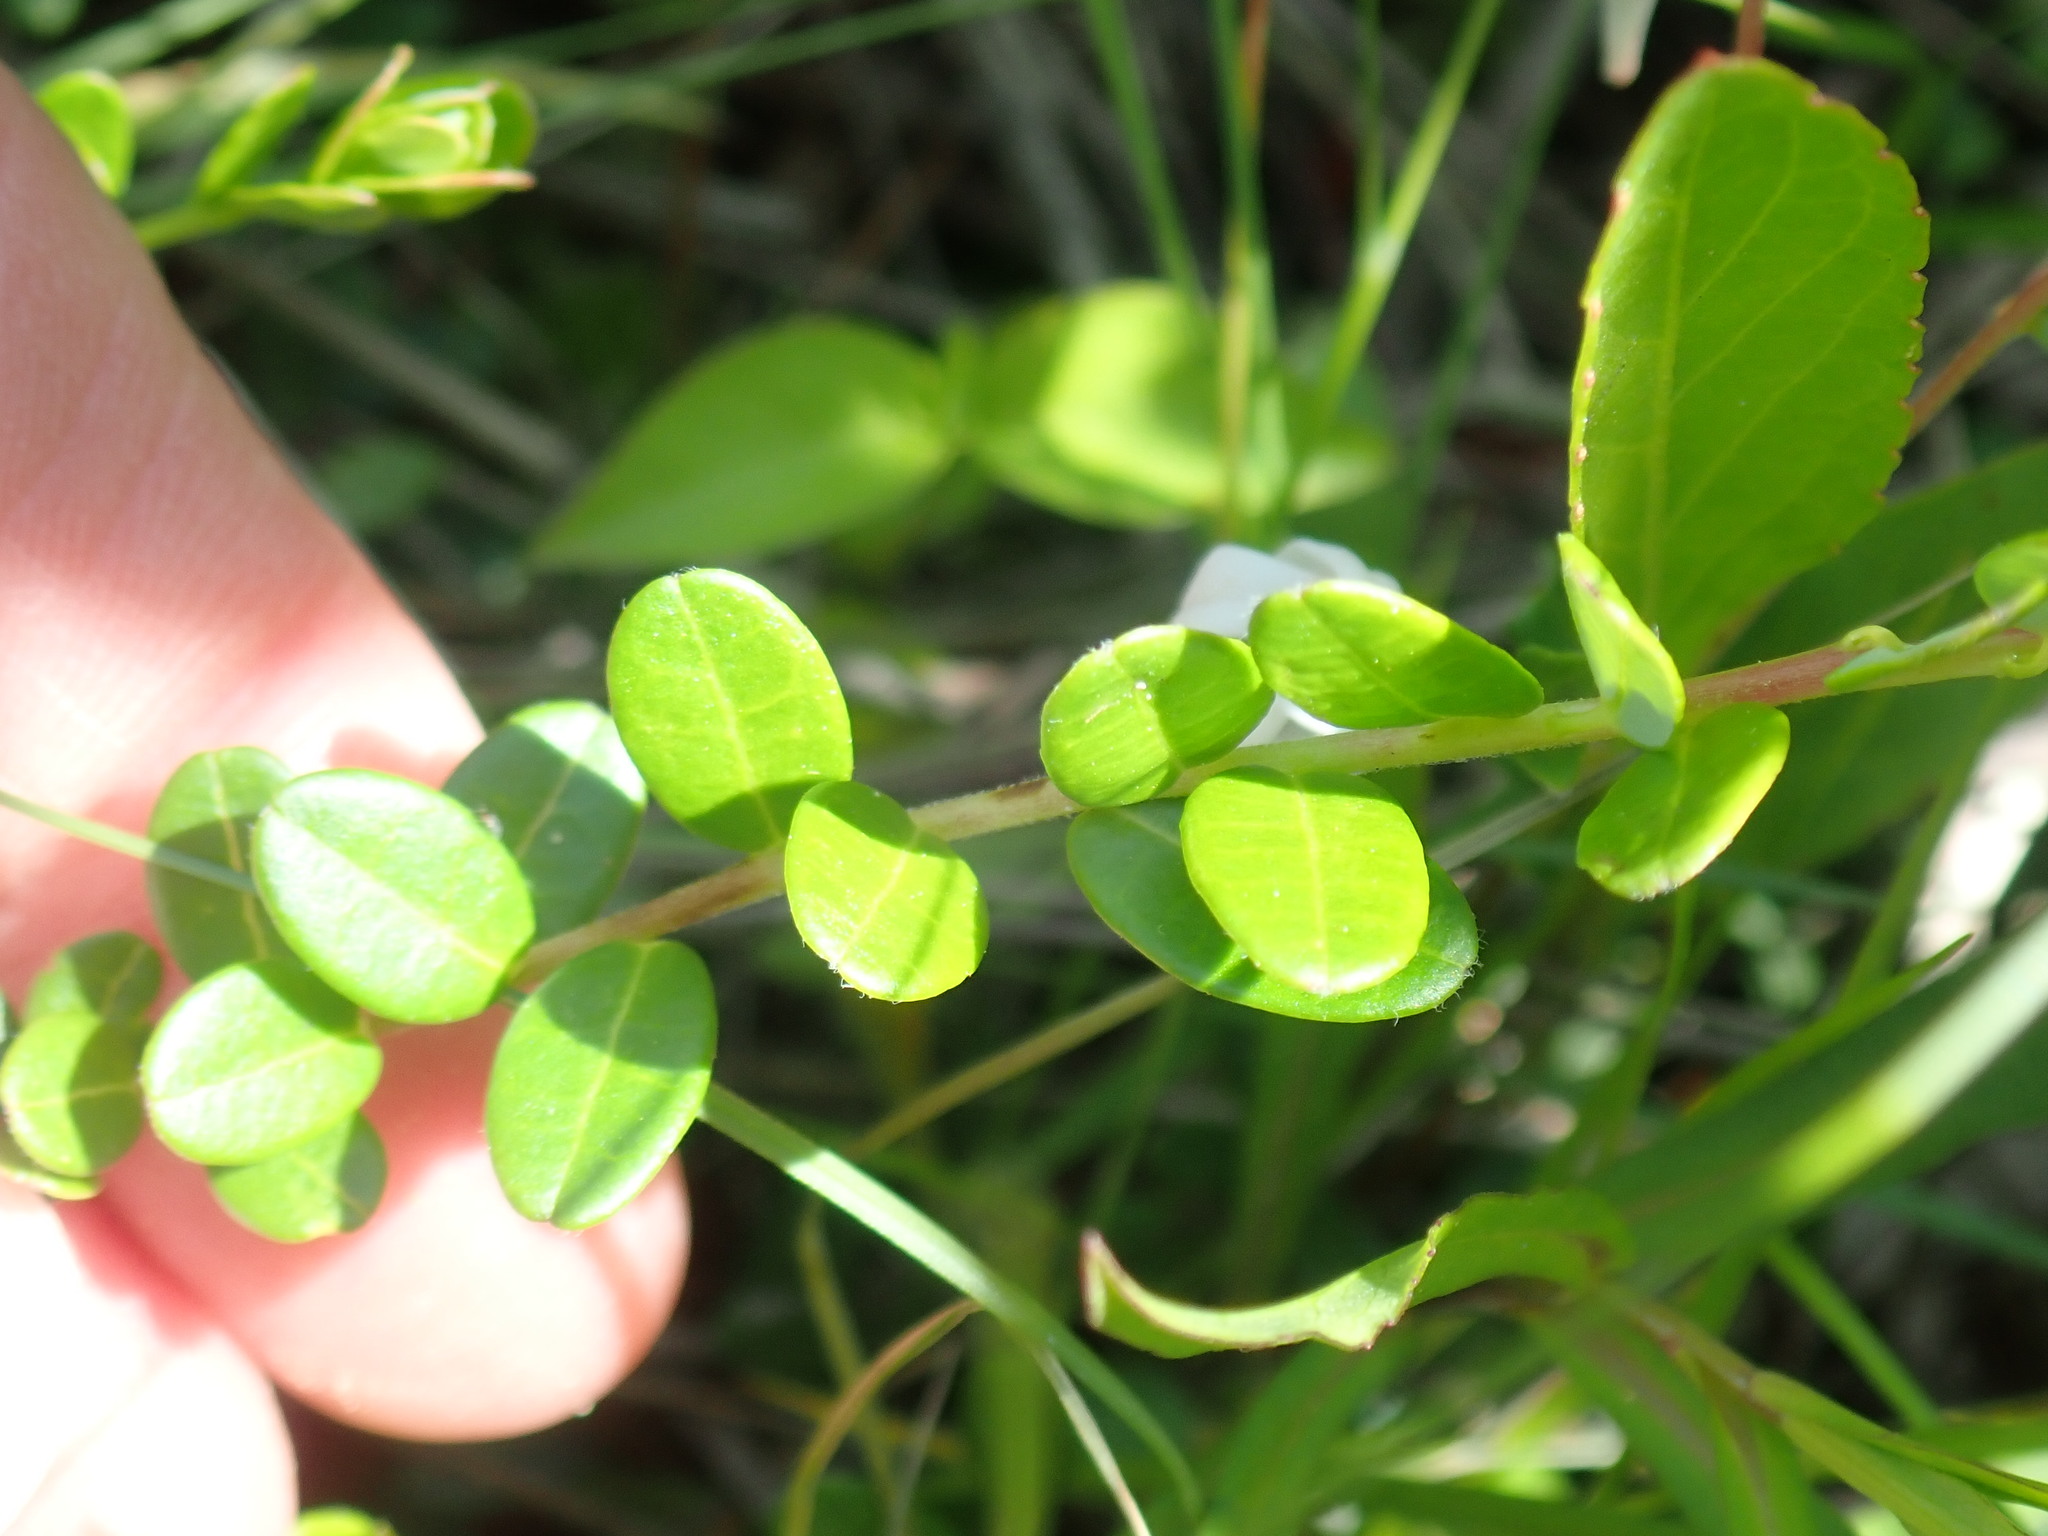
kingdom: Plantae
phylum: Tracheophyta
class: Magnoliopsida
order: Ericales
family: Ericaceae
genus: Vaccinium
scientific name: Vaccinium macrocarpon
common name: American cranberry
